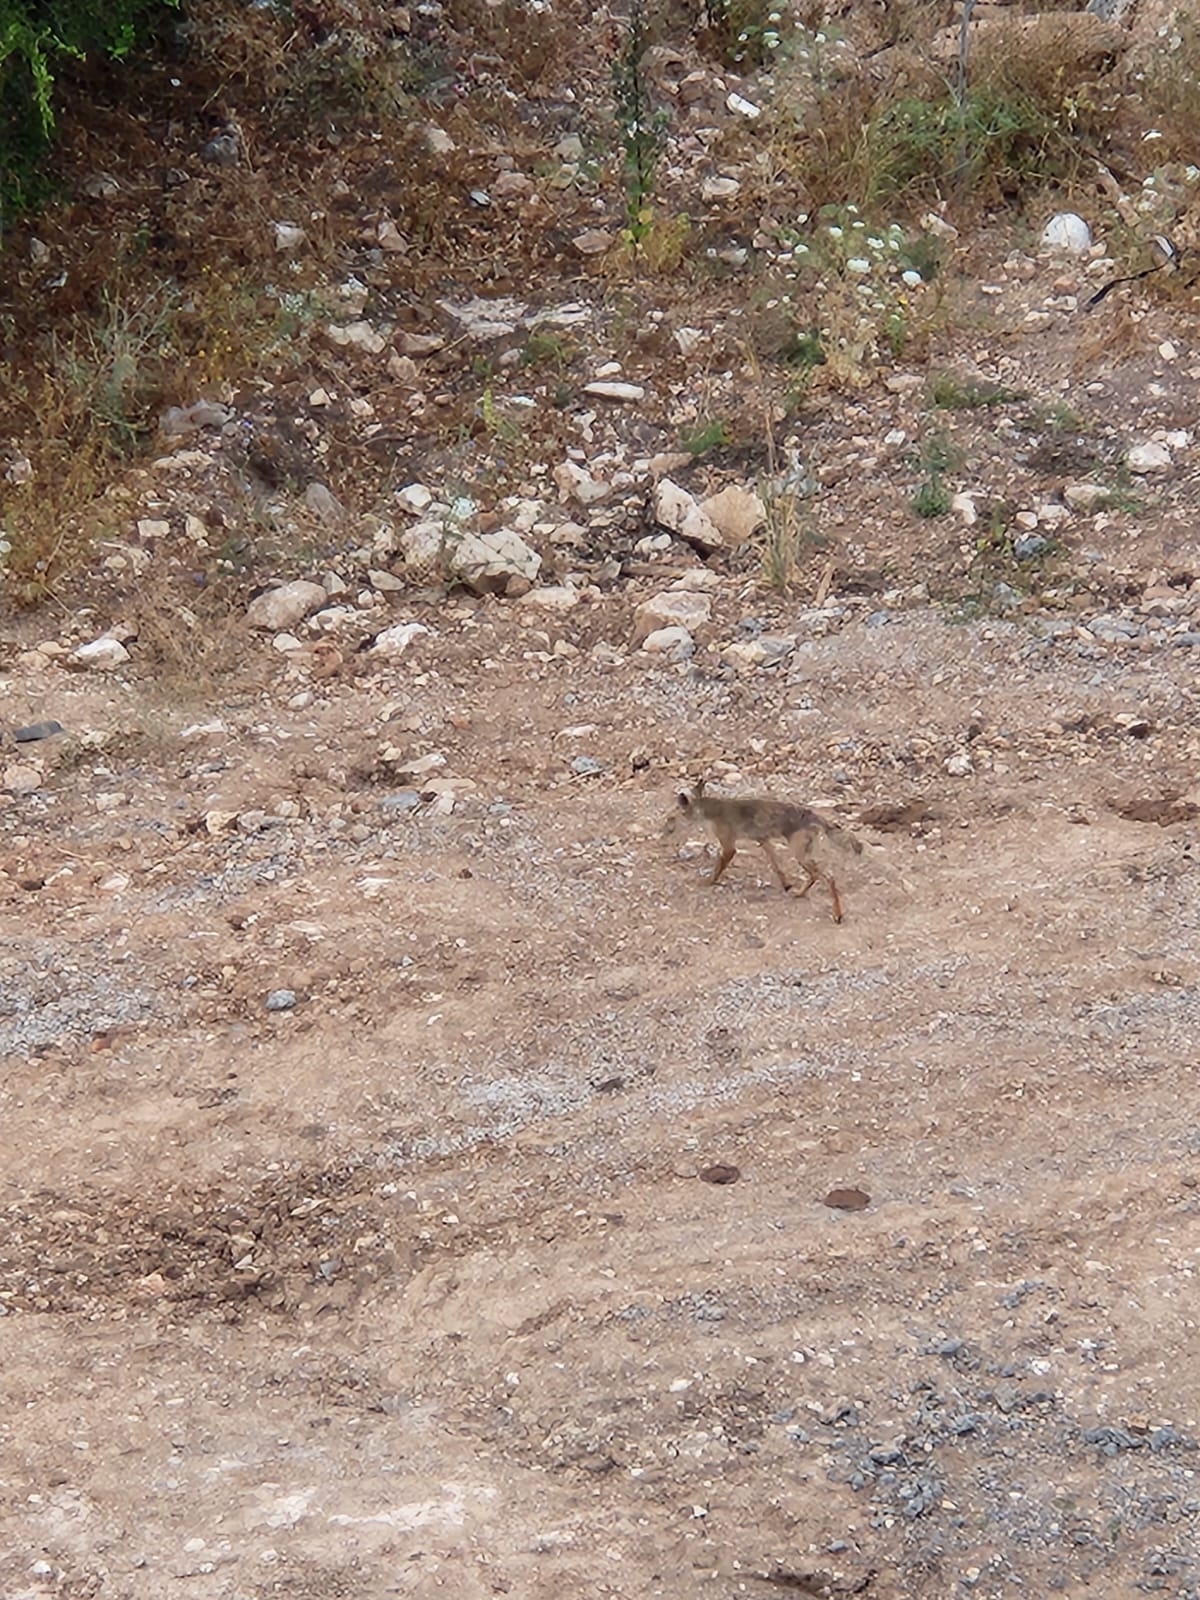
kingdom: Animalia
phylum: Chordata
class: Mammalia
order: Carnivora
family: Canidae
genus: Vulpes
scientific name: Vulpes vulpes
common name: Red fox
